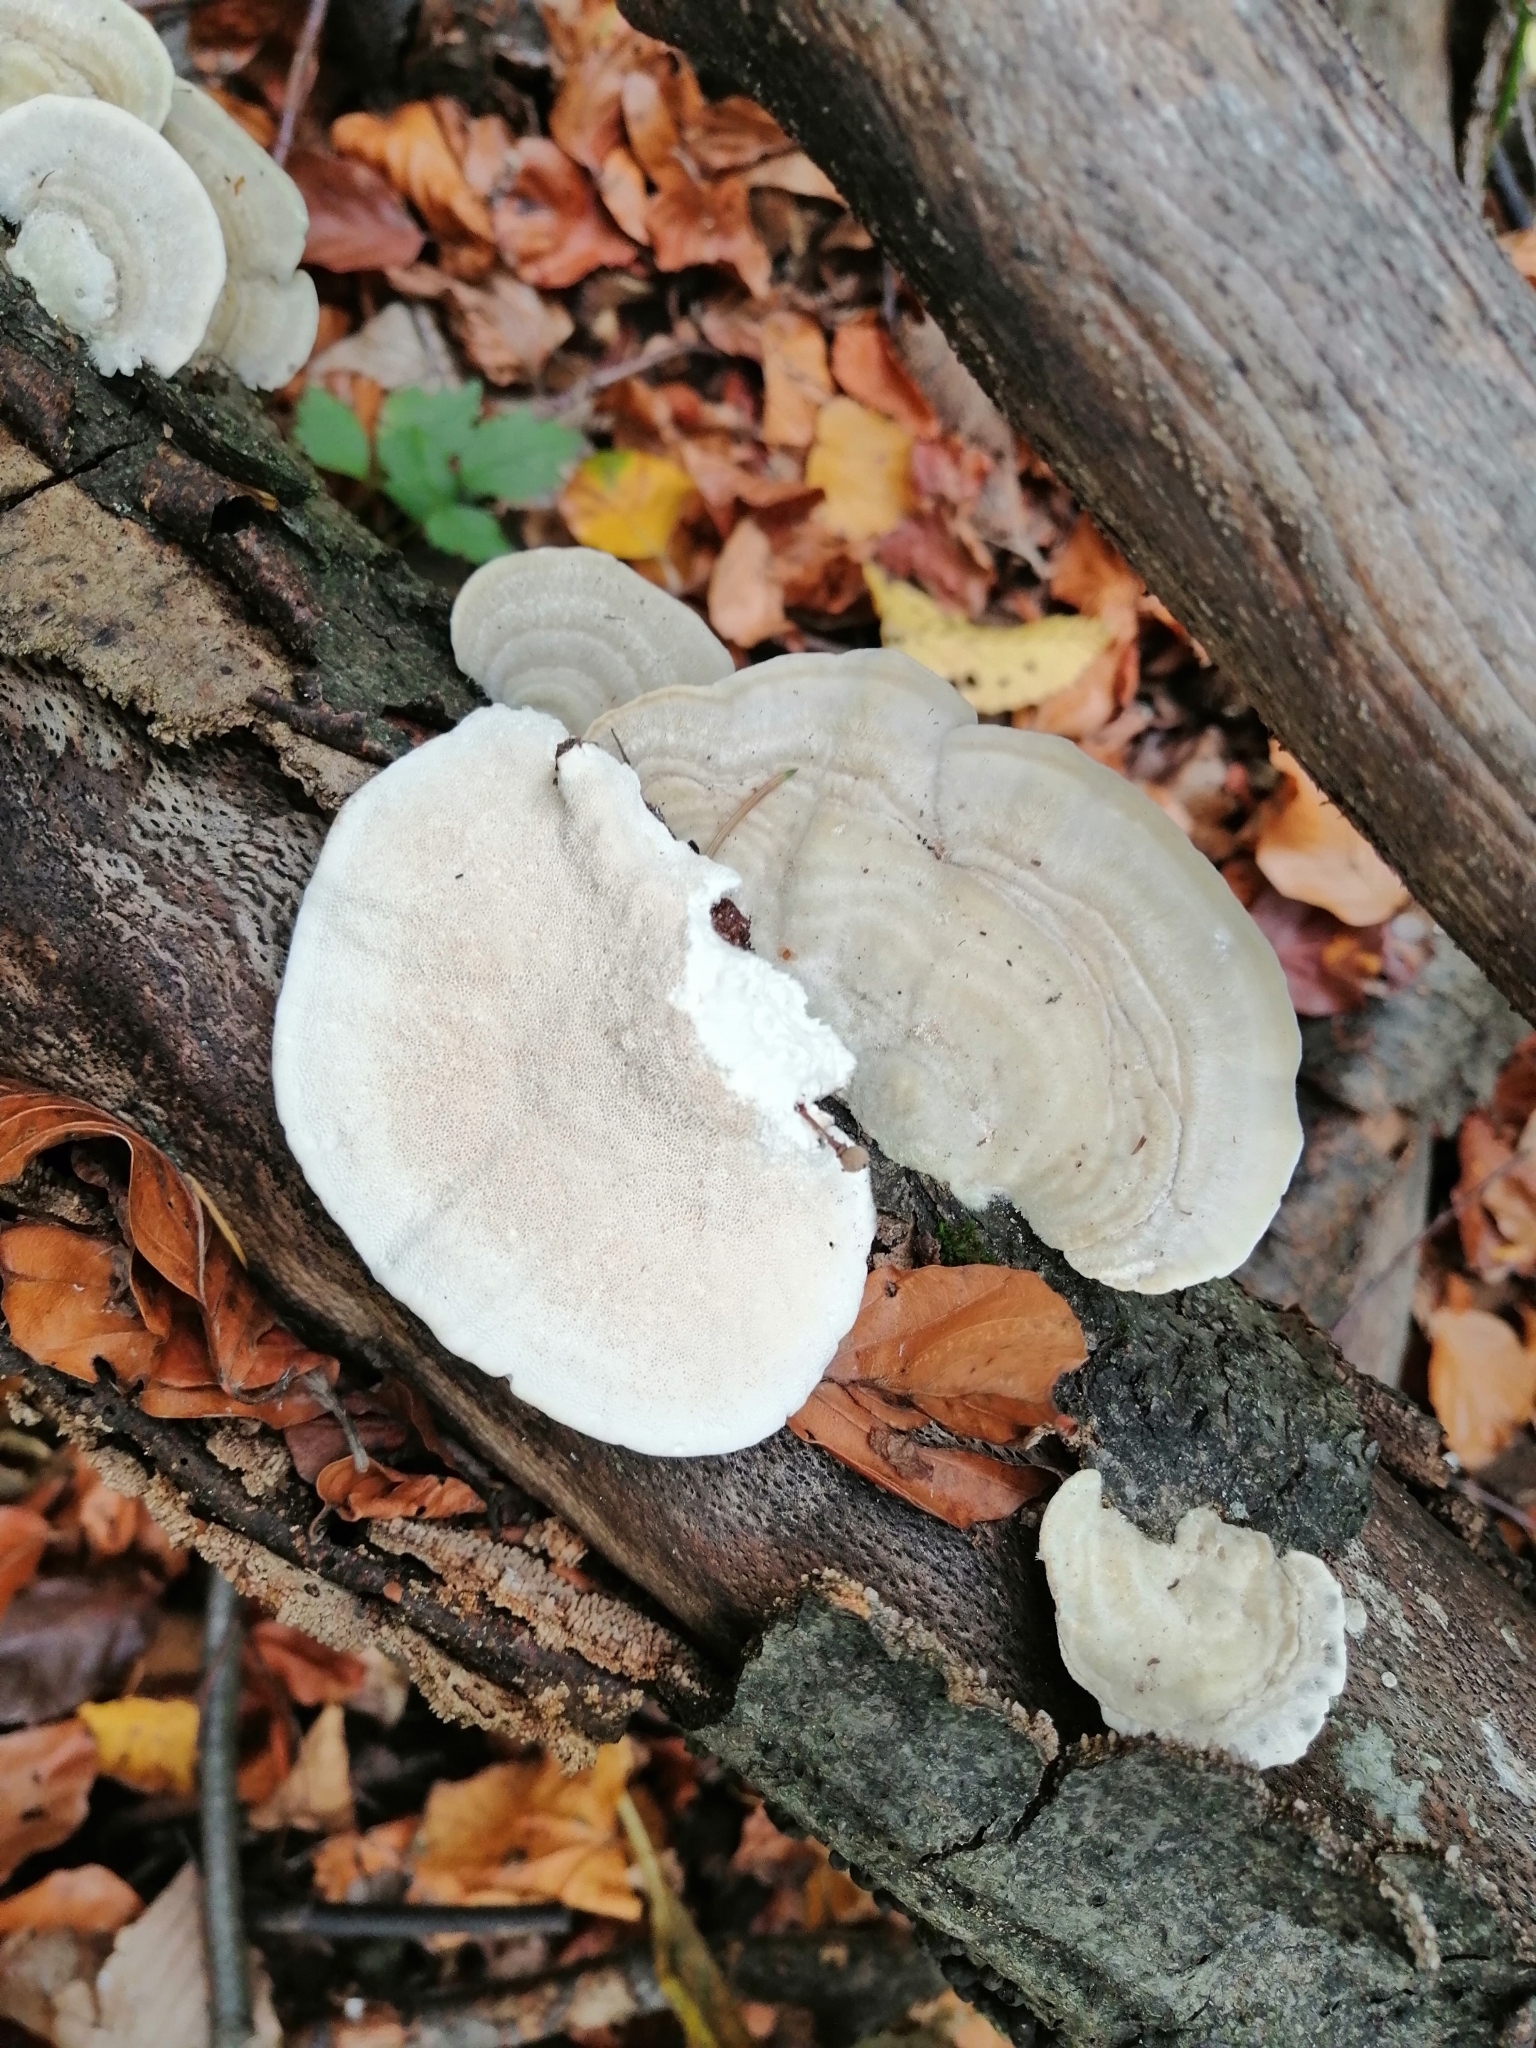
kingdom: Fungi
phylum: Basidiomycota
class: Agaricomycetes
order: Polyporales
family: Polyporaceae
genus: Trametes
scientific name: Trametes hirsuta
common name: Hairy bracket
